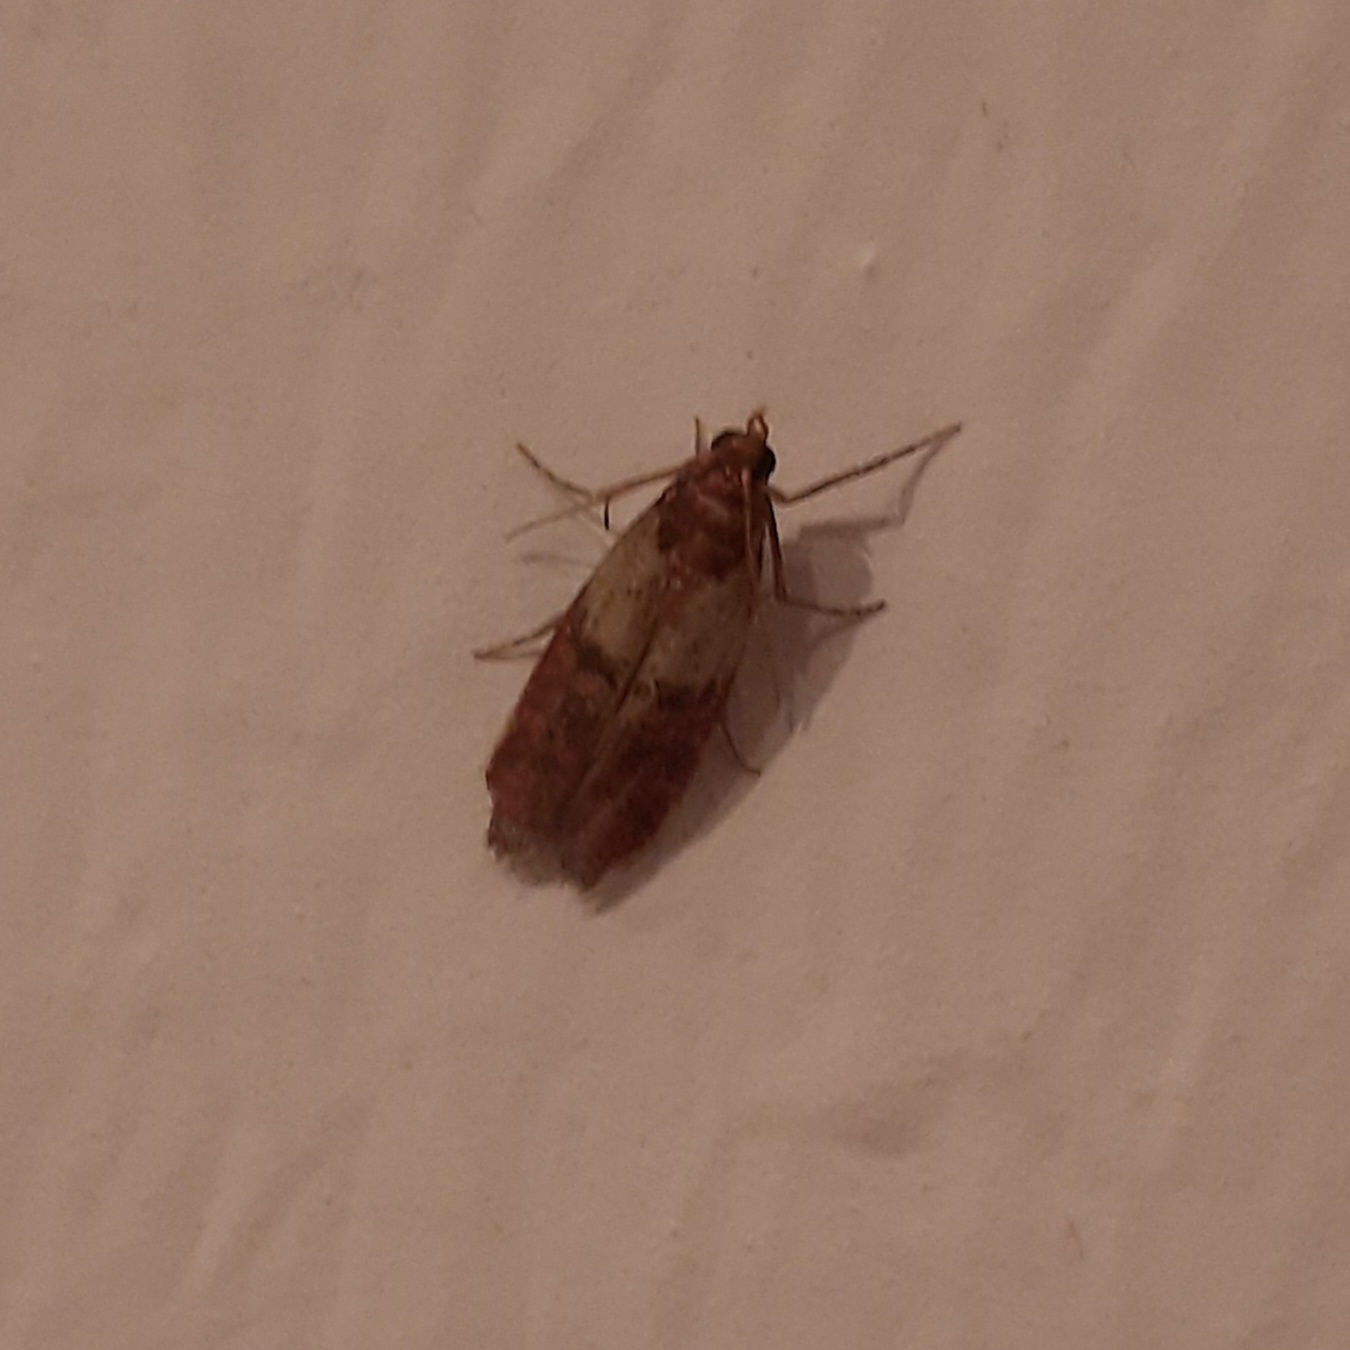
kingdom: Animalia
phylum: Arthropoda
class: Insecta
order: Lepidoptera
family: Pyralidae
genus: Plodia
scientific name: Plodia interpunctella
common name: Indian meal moth
